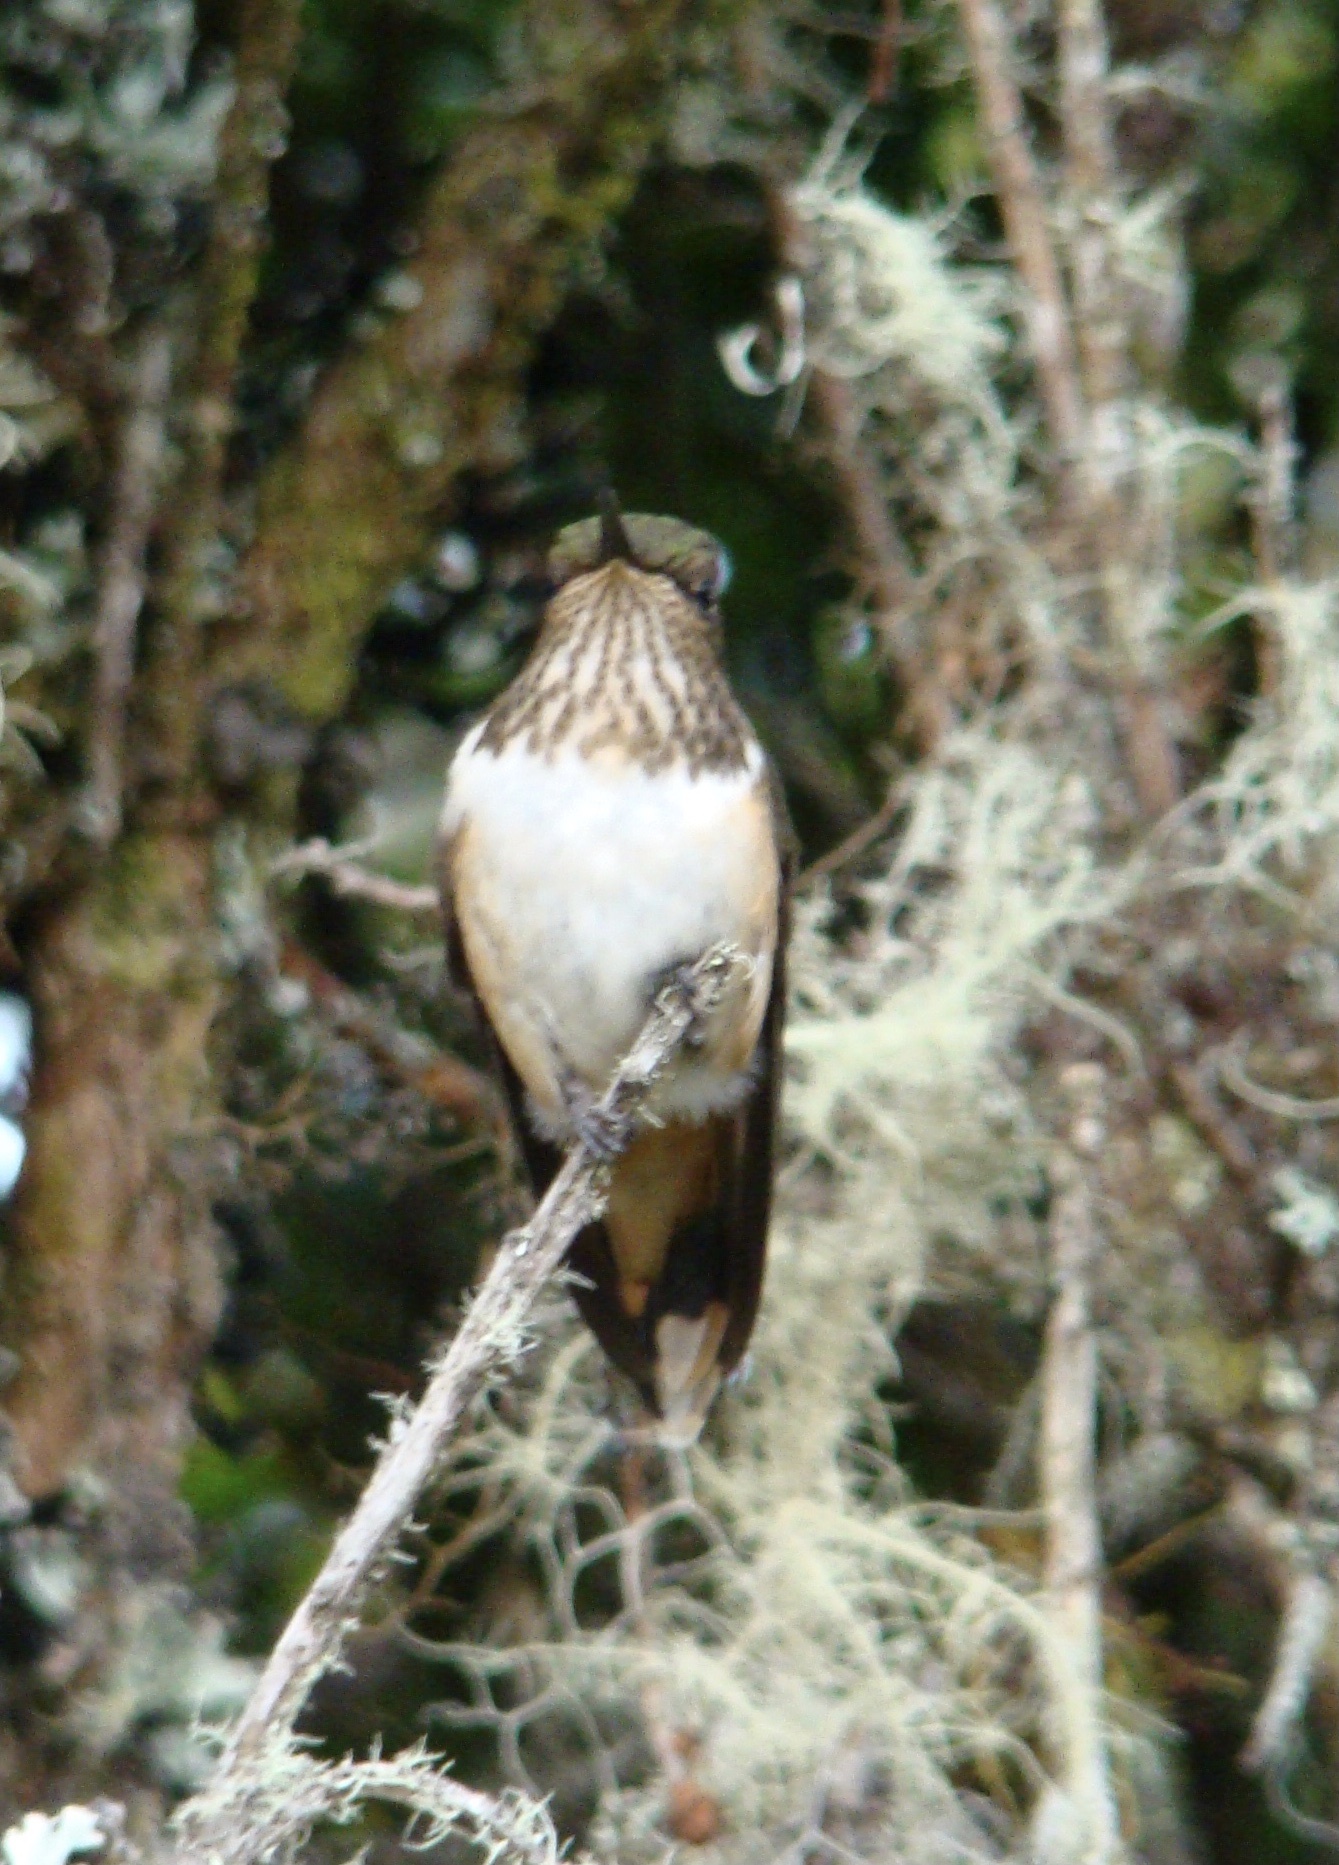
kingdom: Animalia
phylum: Chordata
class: Aves
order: Apodiformes
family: Trochilidae
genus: Selasphorus
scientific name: Selasphorus flammula
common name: Volcano hummingbird
